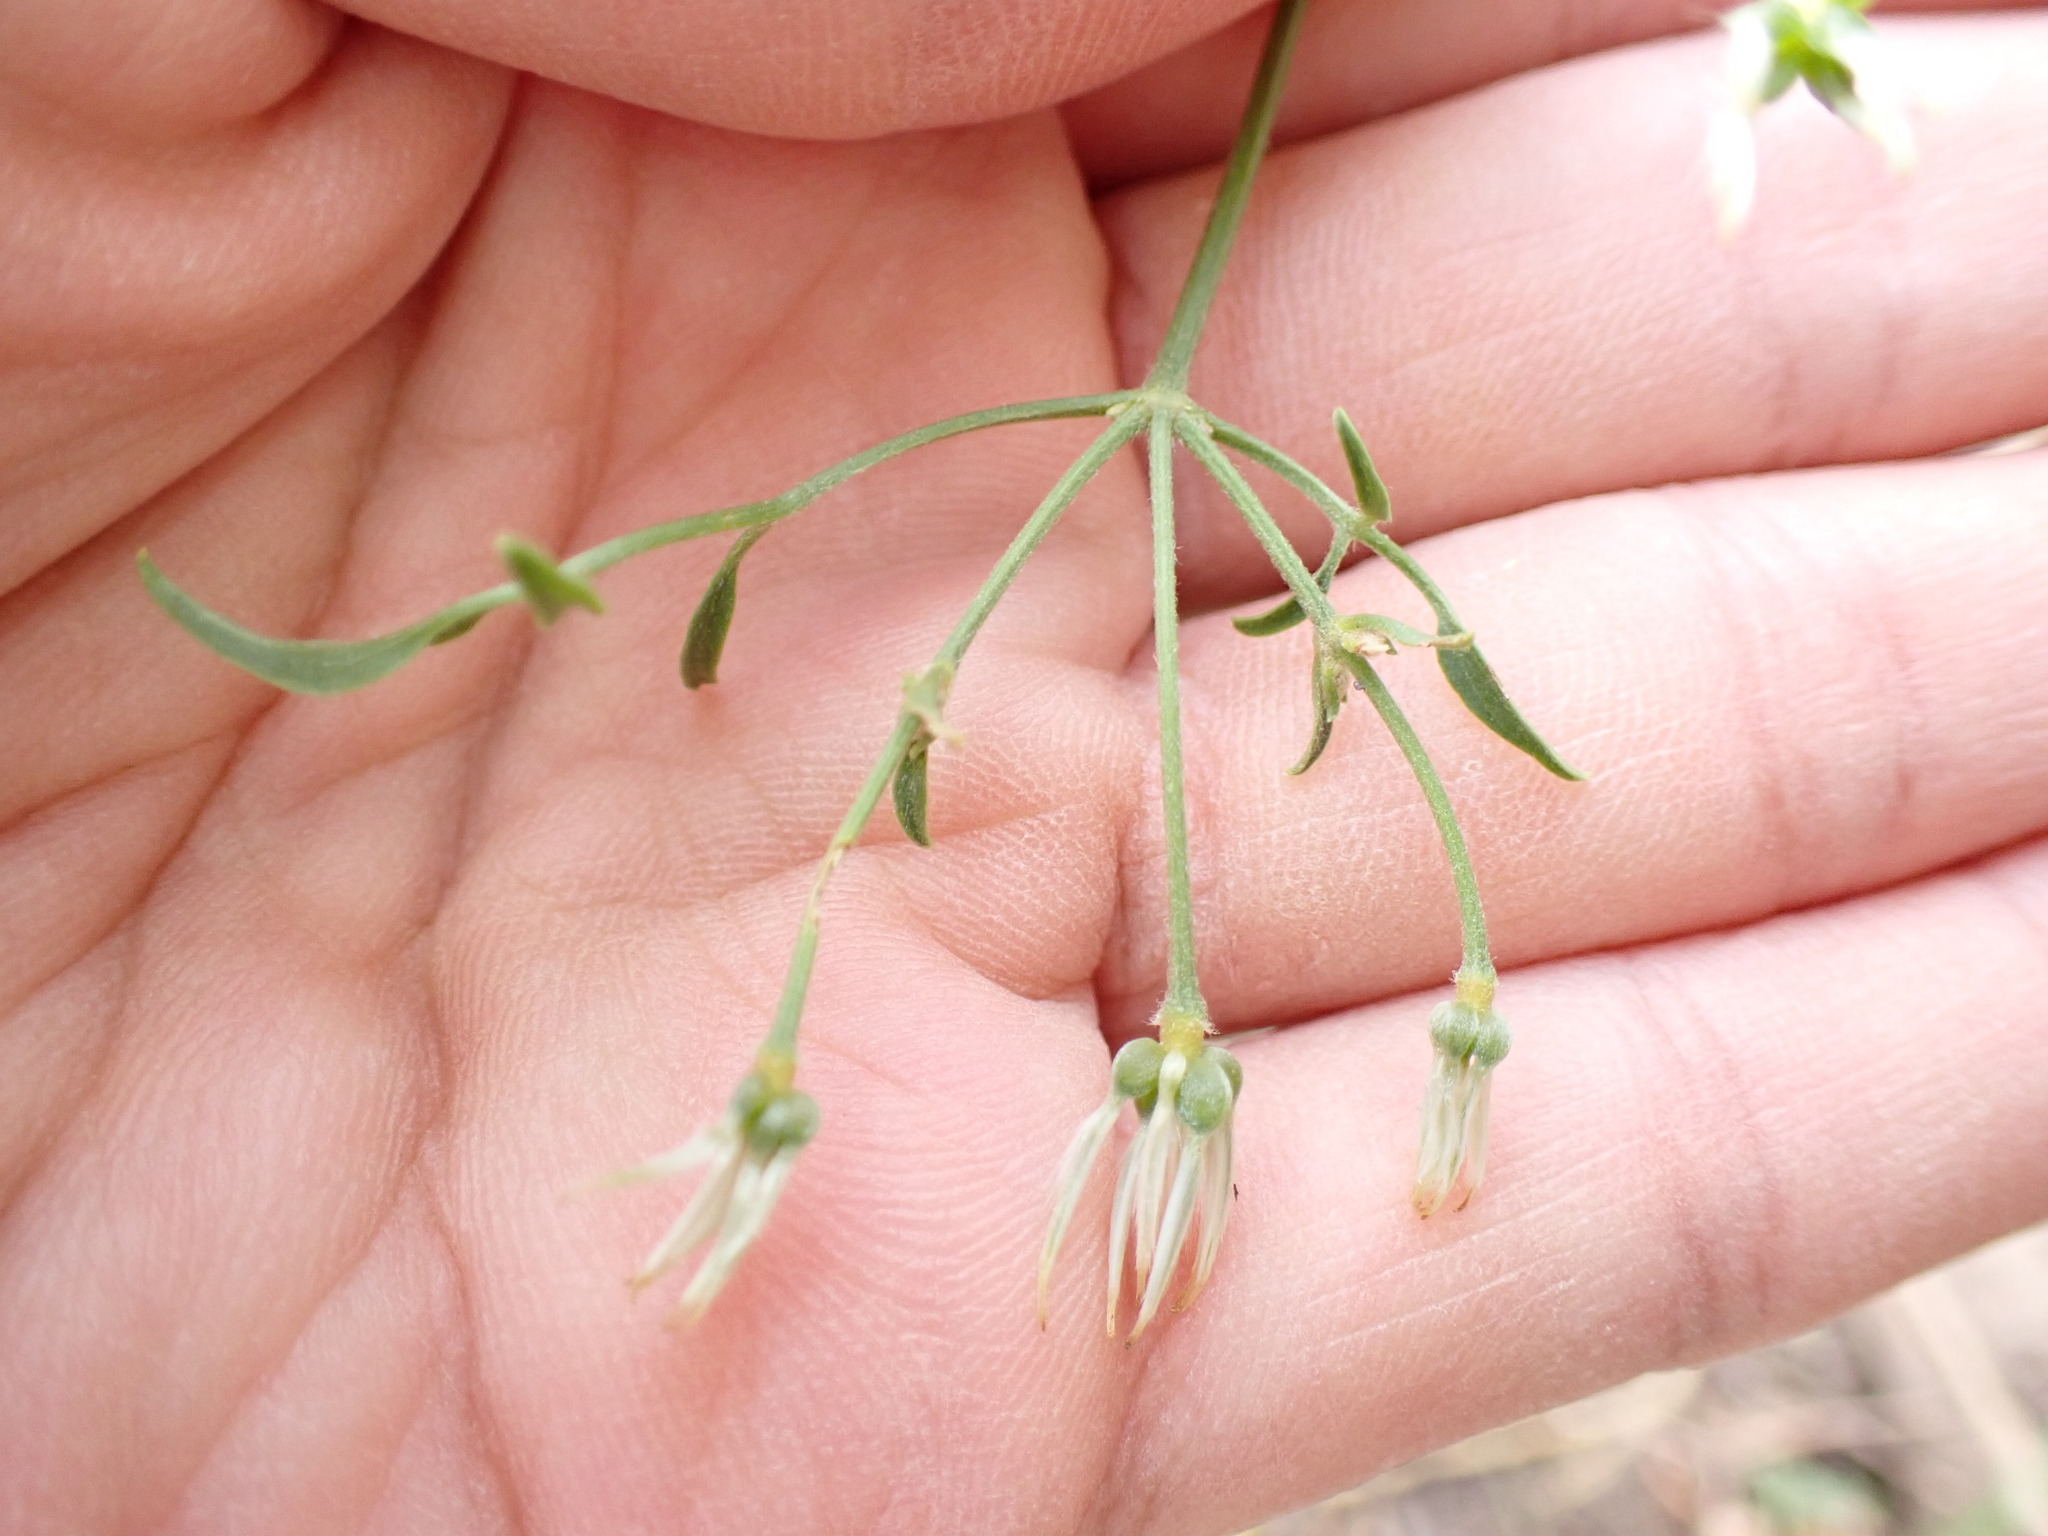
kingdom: Plantae
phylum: Tracheophyta
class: Magnoliopsida
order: Ranunculales
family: Ranunculaceae
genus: Clematis
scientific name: Clematis flammula
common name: Virgin's-bower
